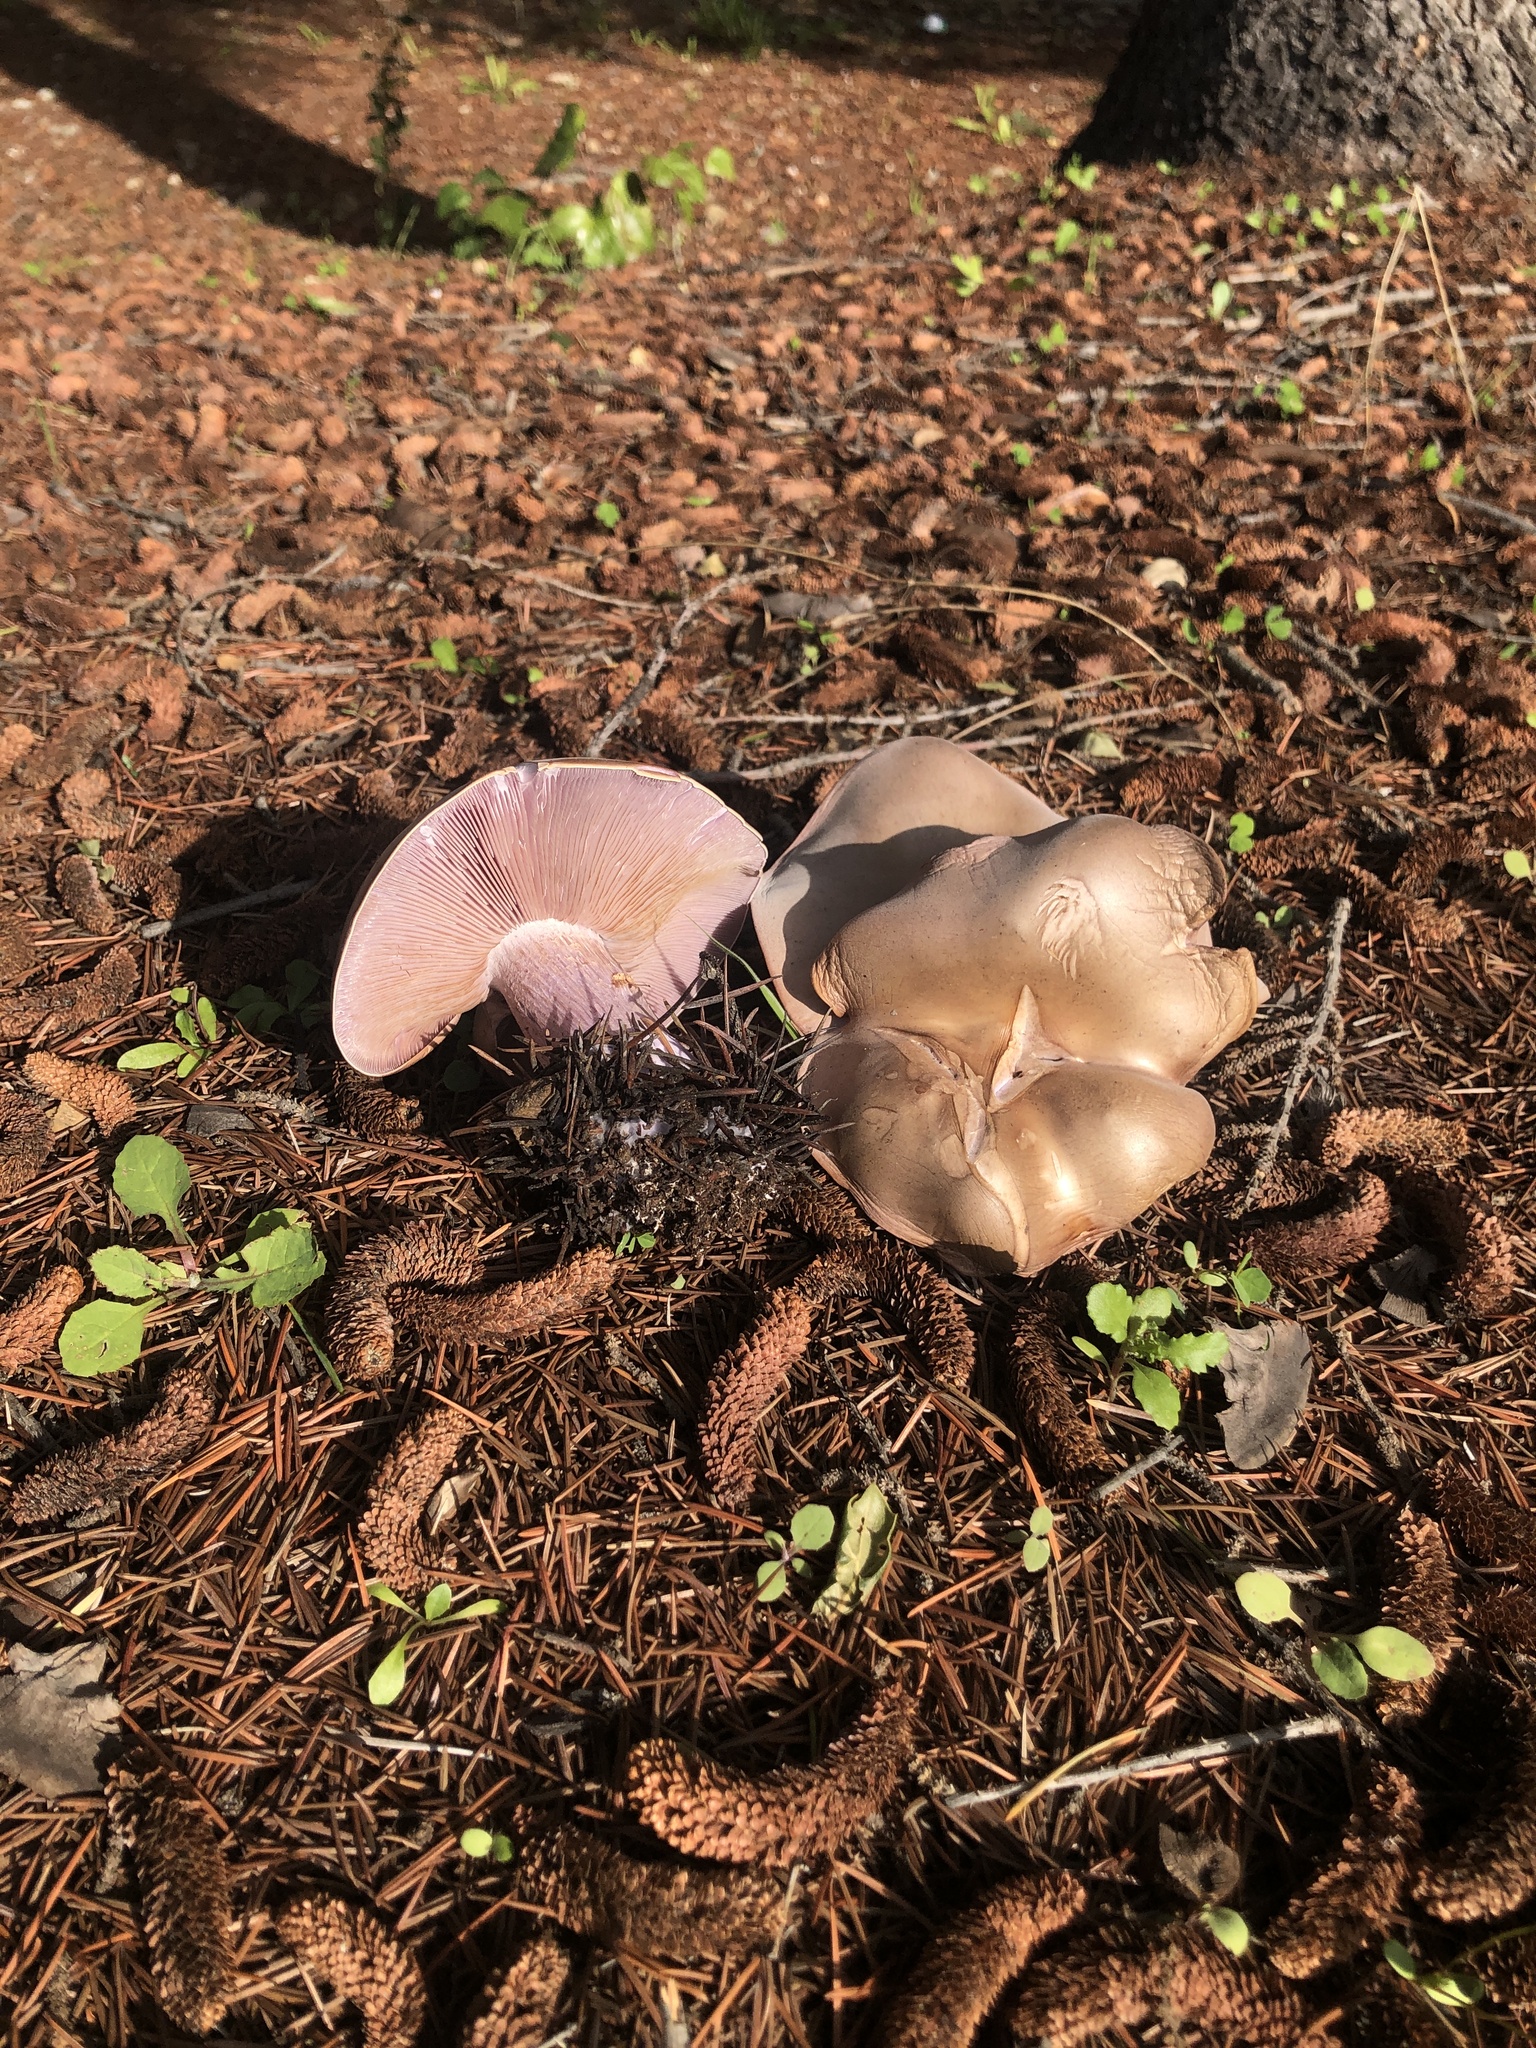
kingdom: Fungi
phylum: Basidiomycota
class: Agaricomycetes
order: Agaricales
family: Tricholomataceae
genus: Collybia
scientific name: Collybia
